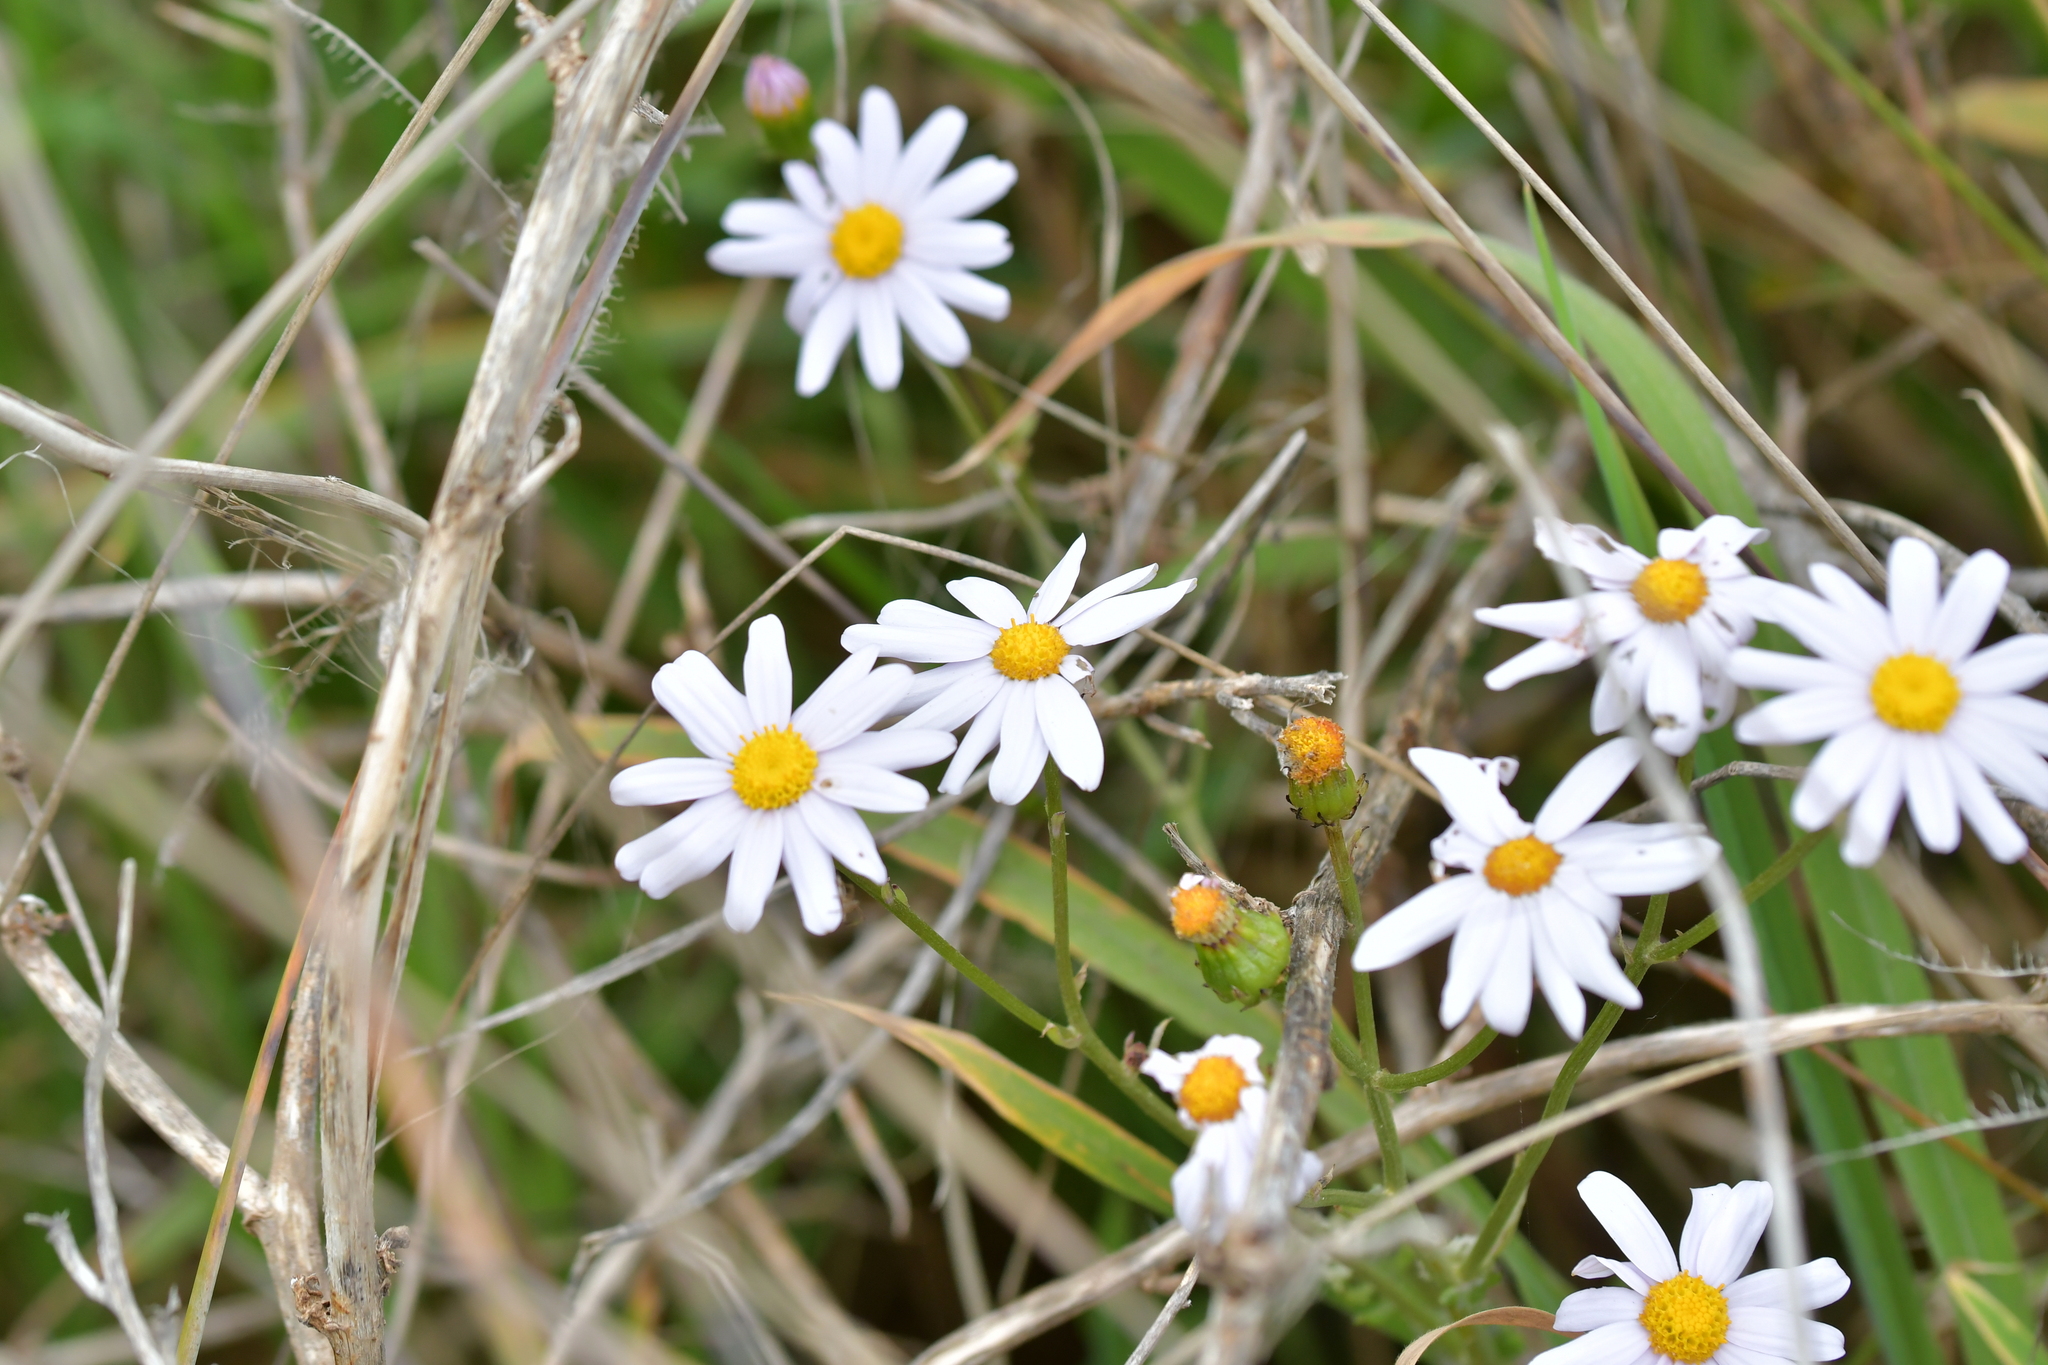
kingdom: Plantae
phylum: Tracheophyta
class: Magnoliopsida
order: Asterales
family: Asteraceae
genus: Senecio
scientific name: Senecio elegans
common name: Purple groundsel
